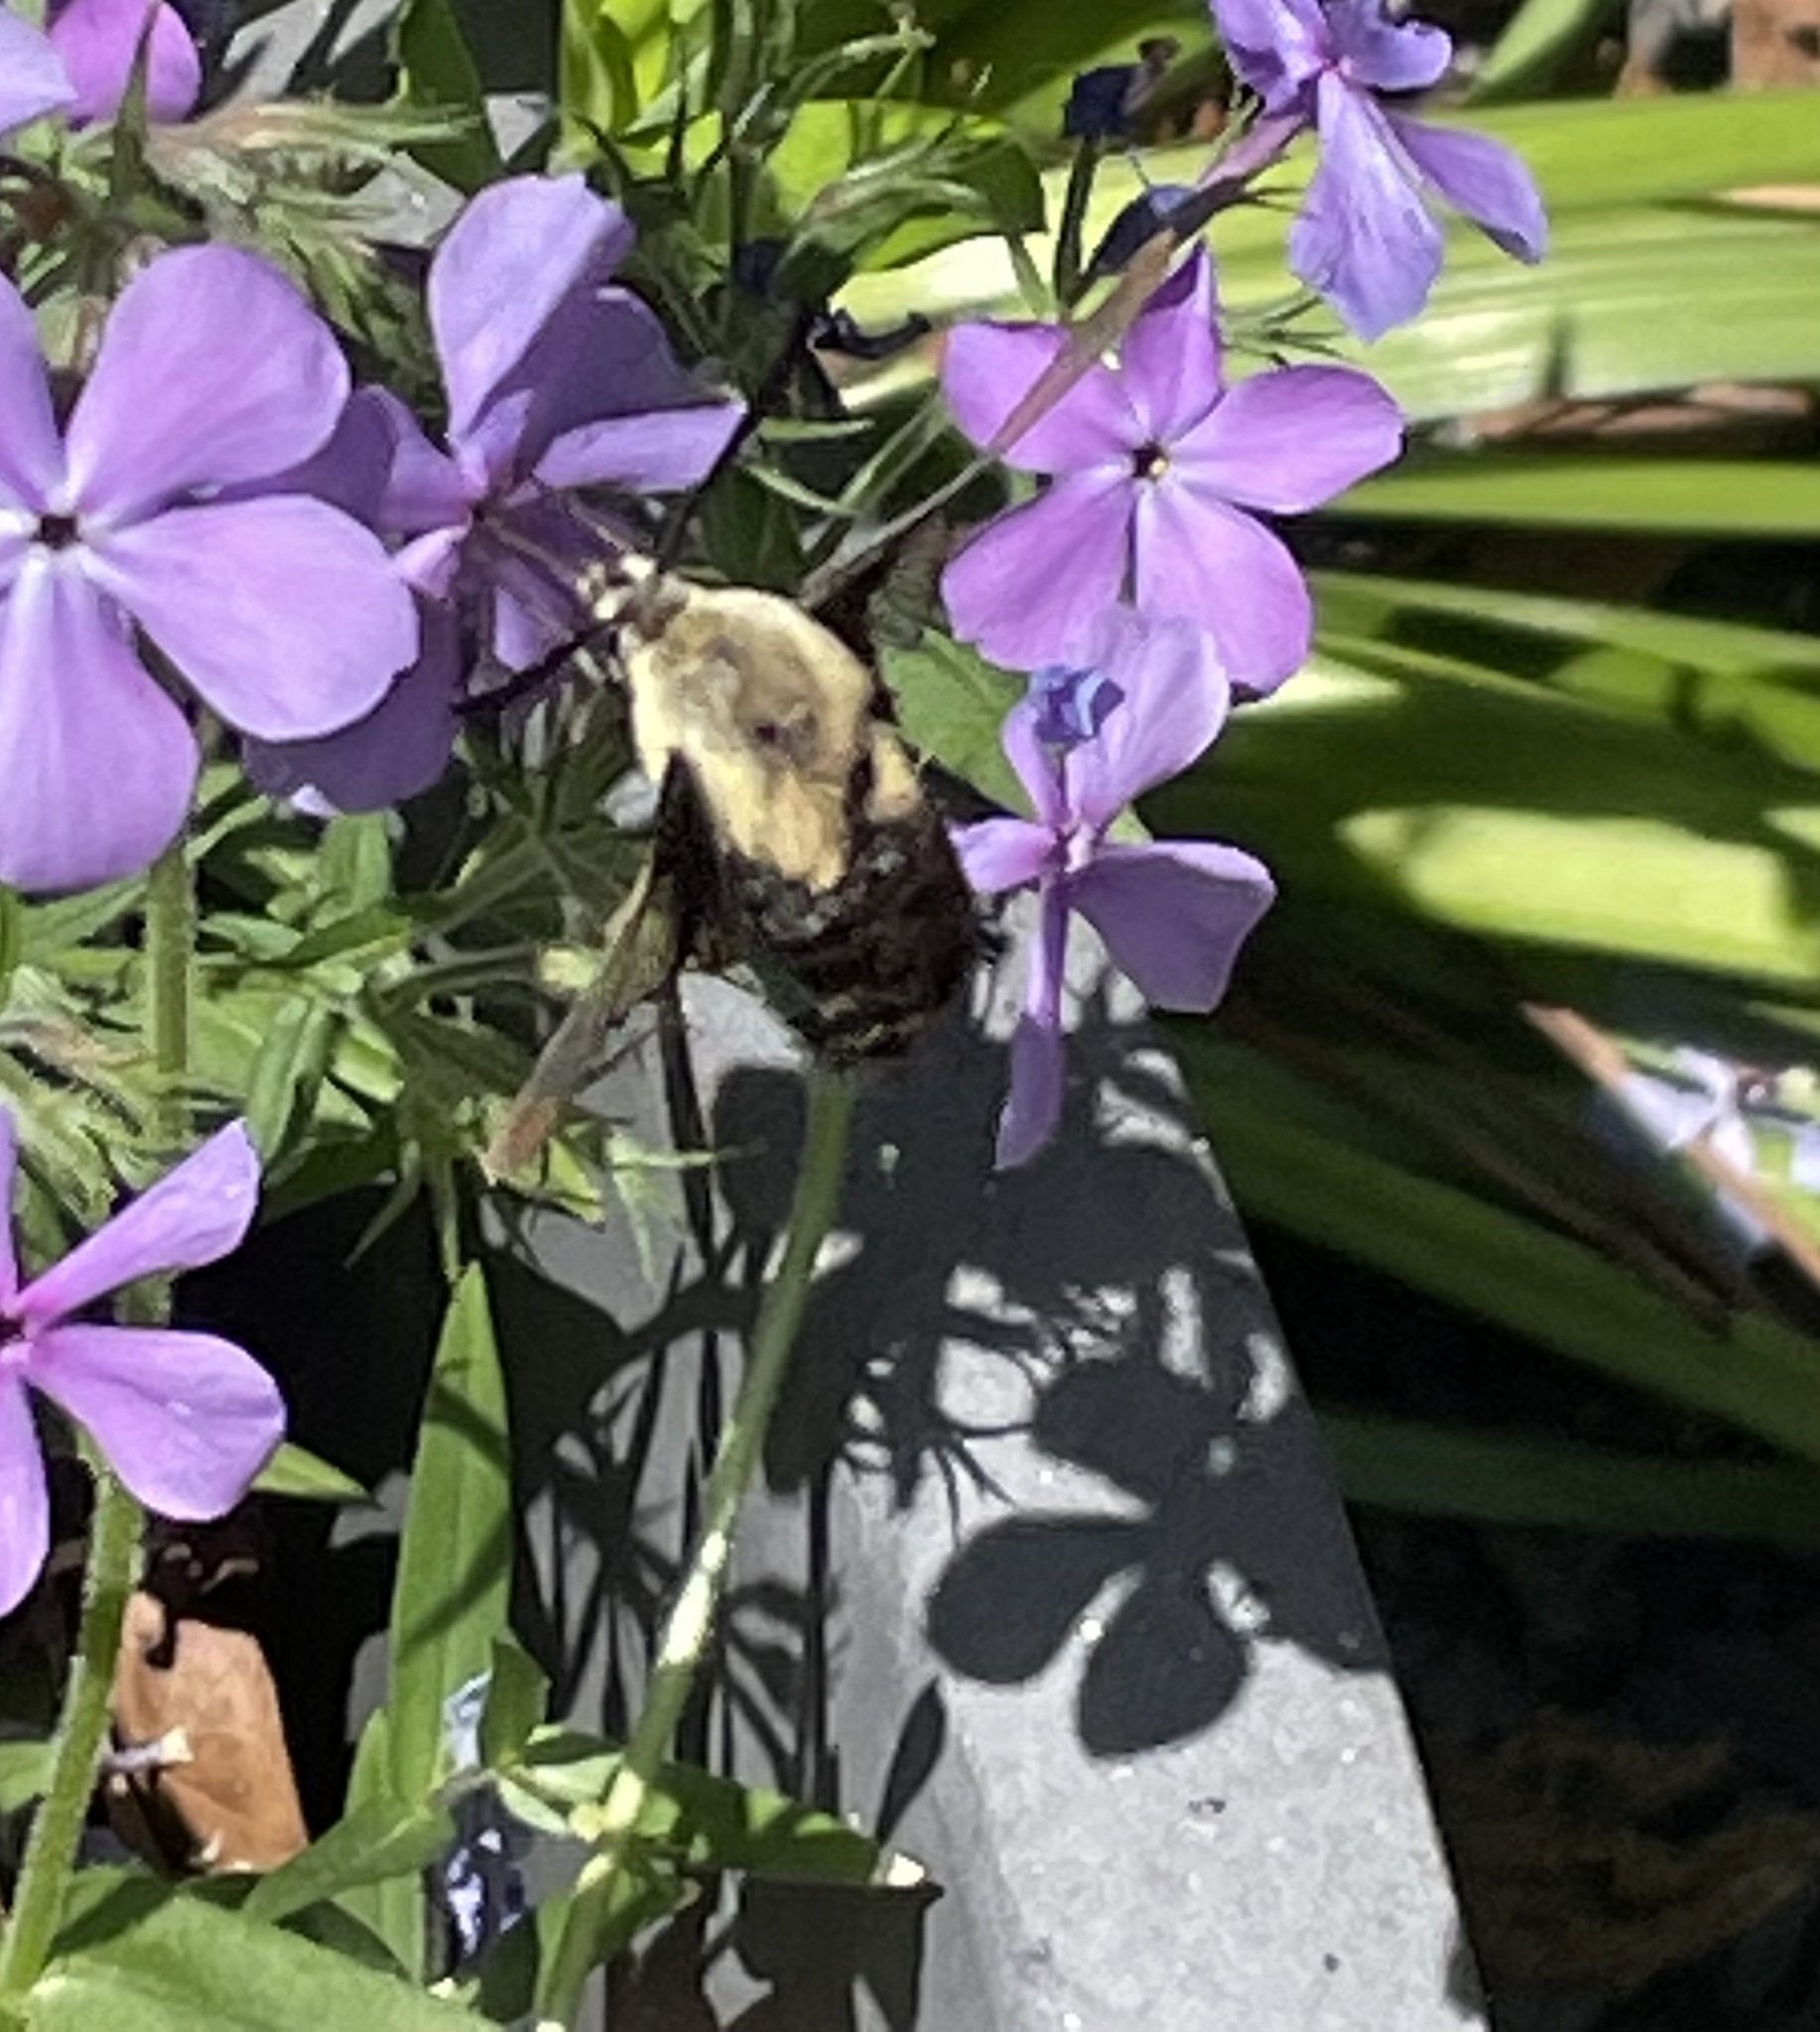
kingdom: Animalia
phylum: Arthropoda
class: Insecta
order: Lepidoptera
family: Sphingidae
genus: Hemaris
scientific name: Hemaris diffinis
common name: Bumblebee moth
